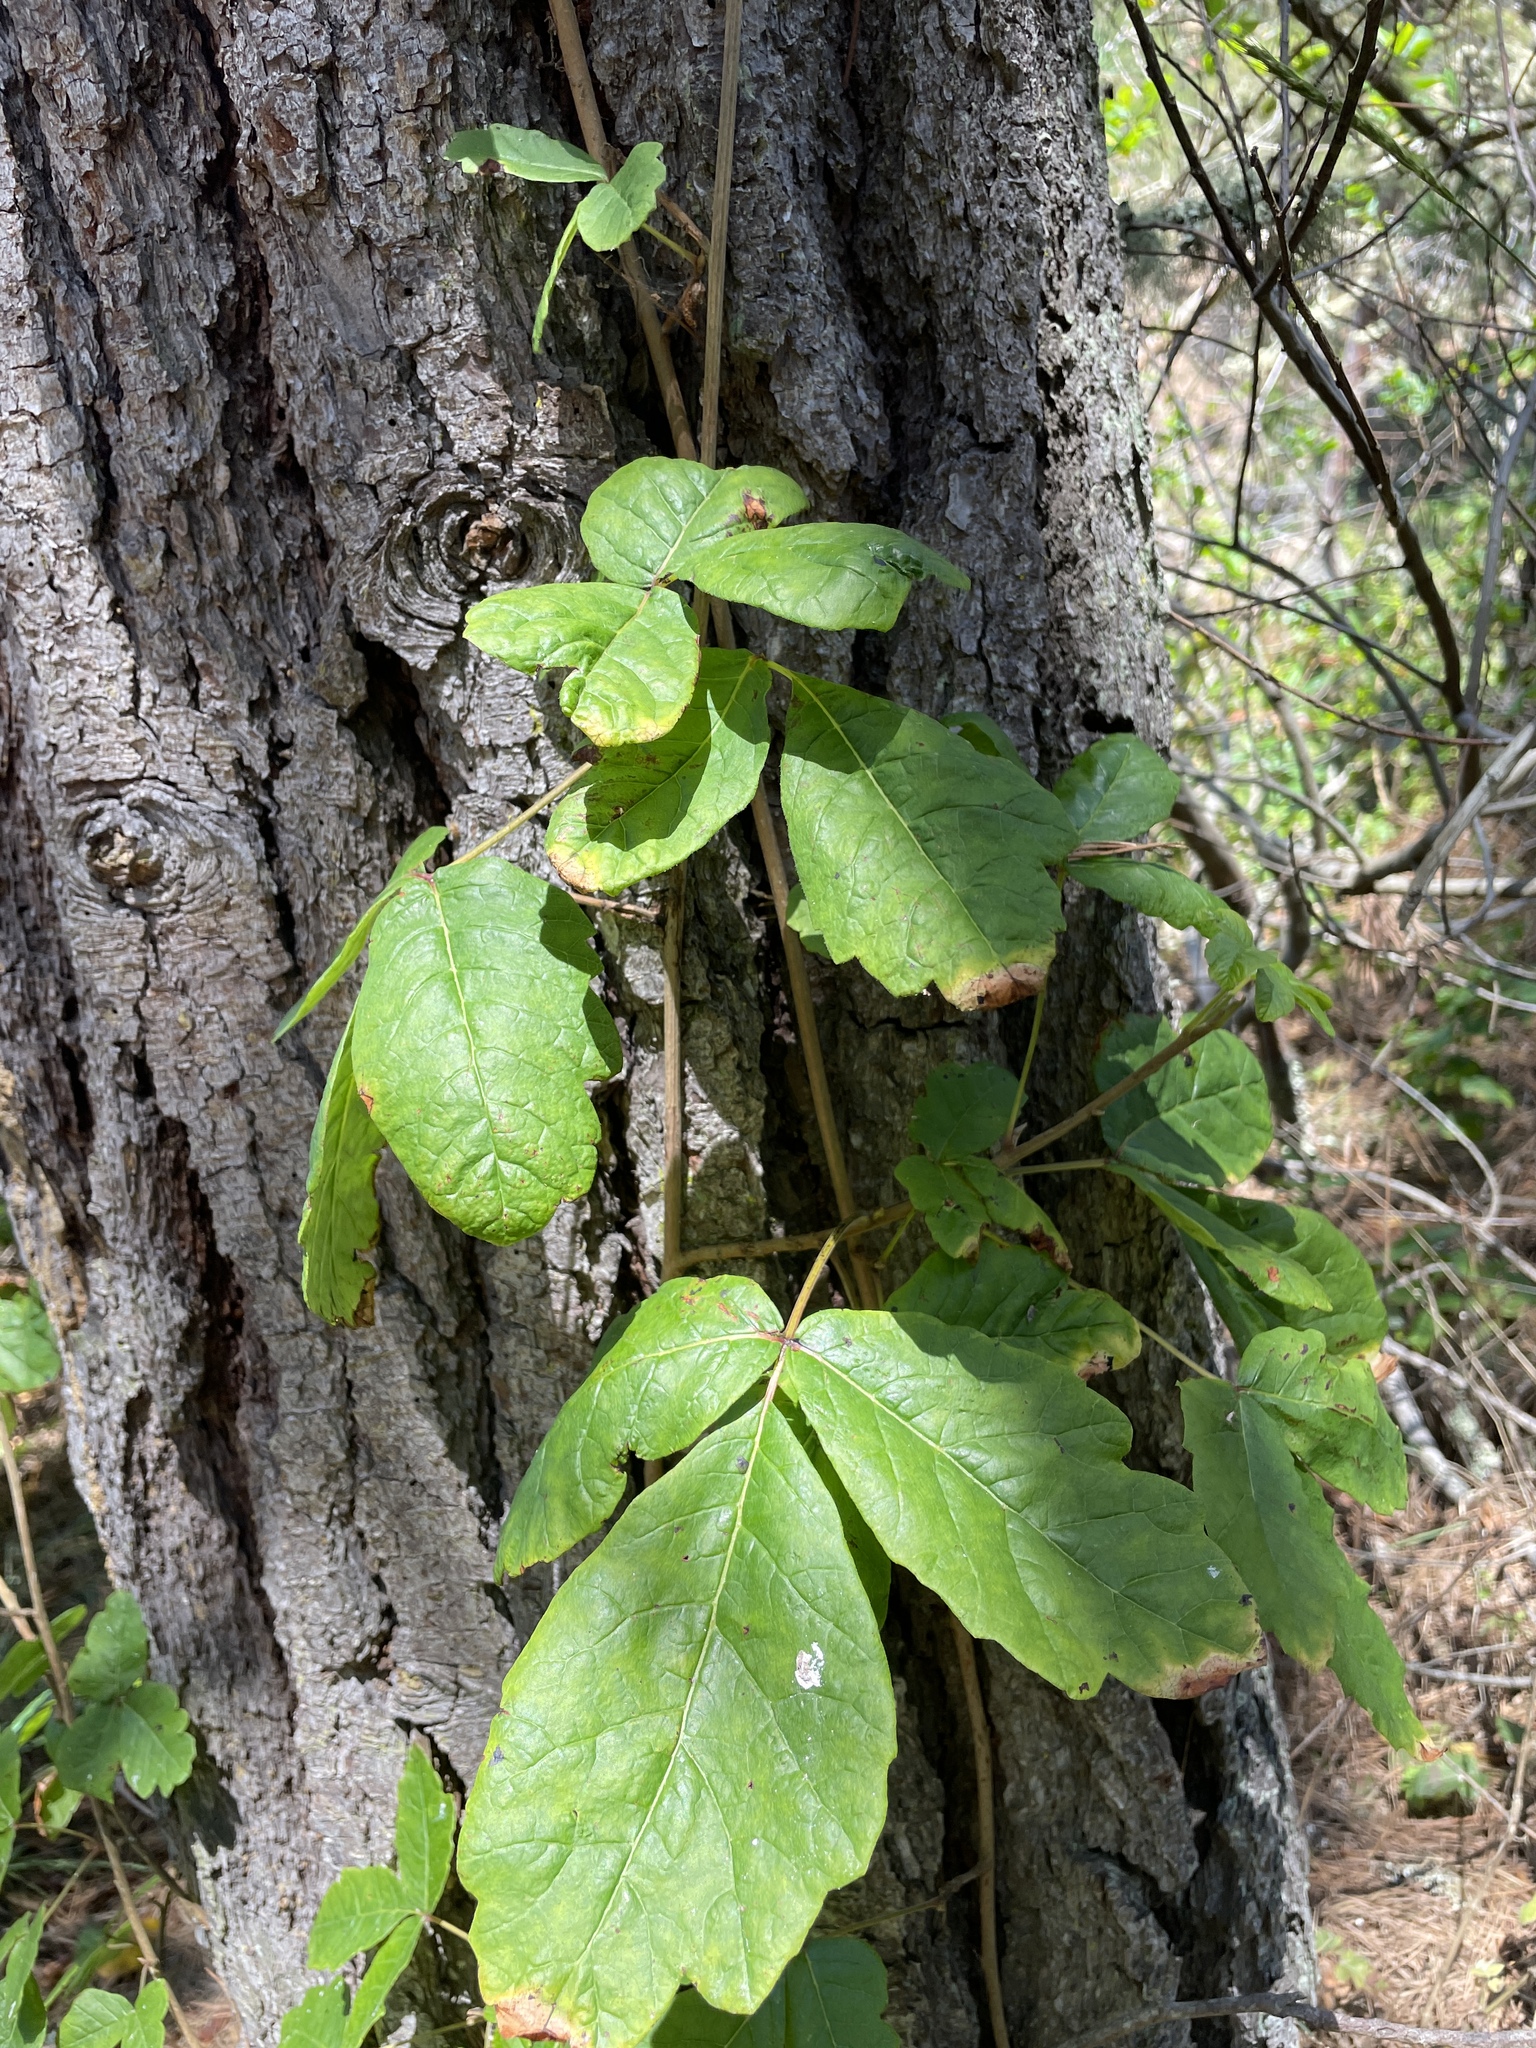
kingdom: Plantae
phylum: Tracheophyta
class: Magnoliopsida
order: Sapindales
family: Anacardiaceae
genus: Toxicodendron
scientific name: Toxicodendron diversilobum
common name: Pacific poison-oak
